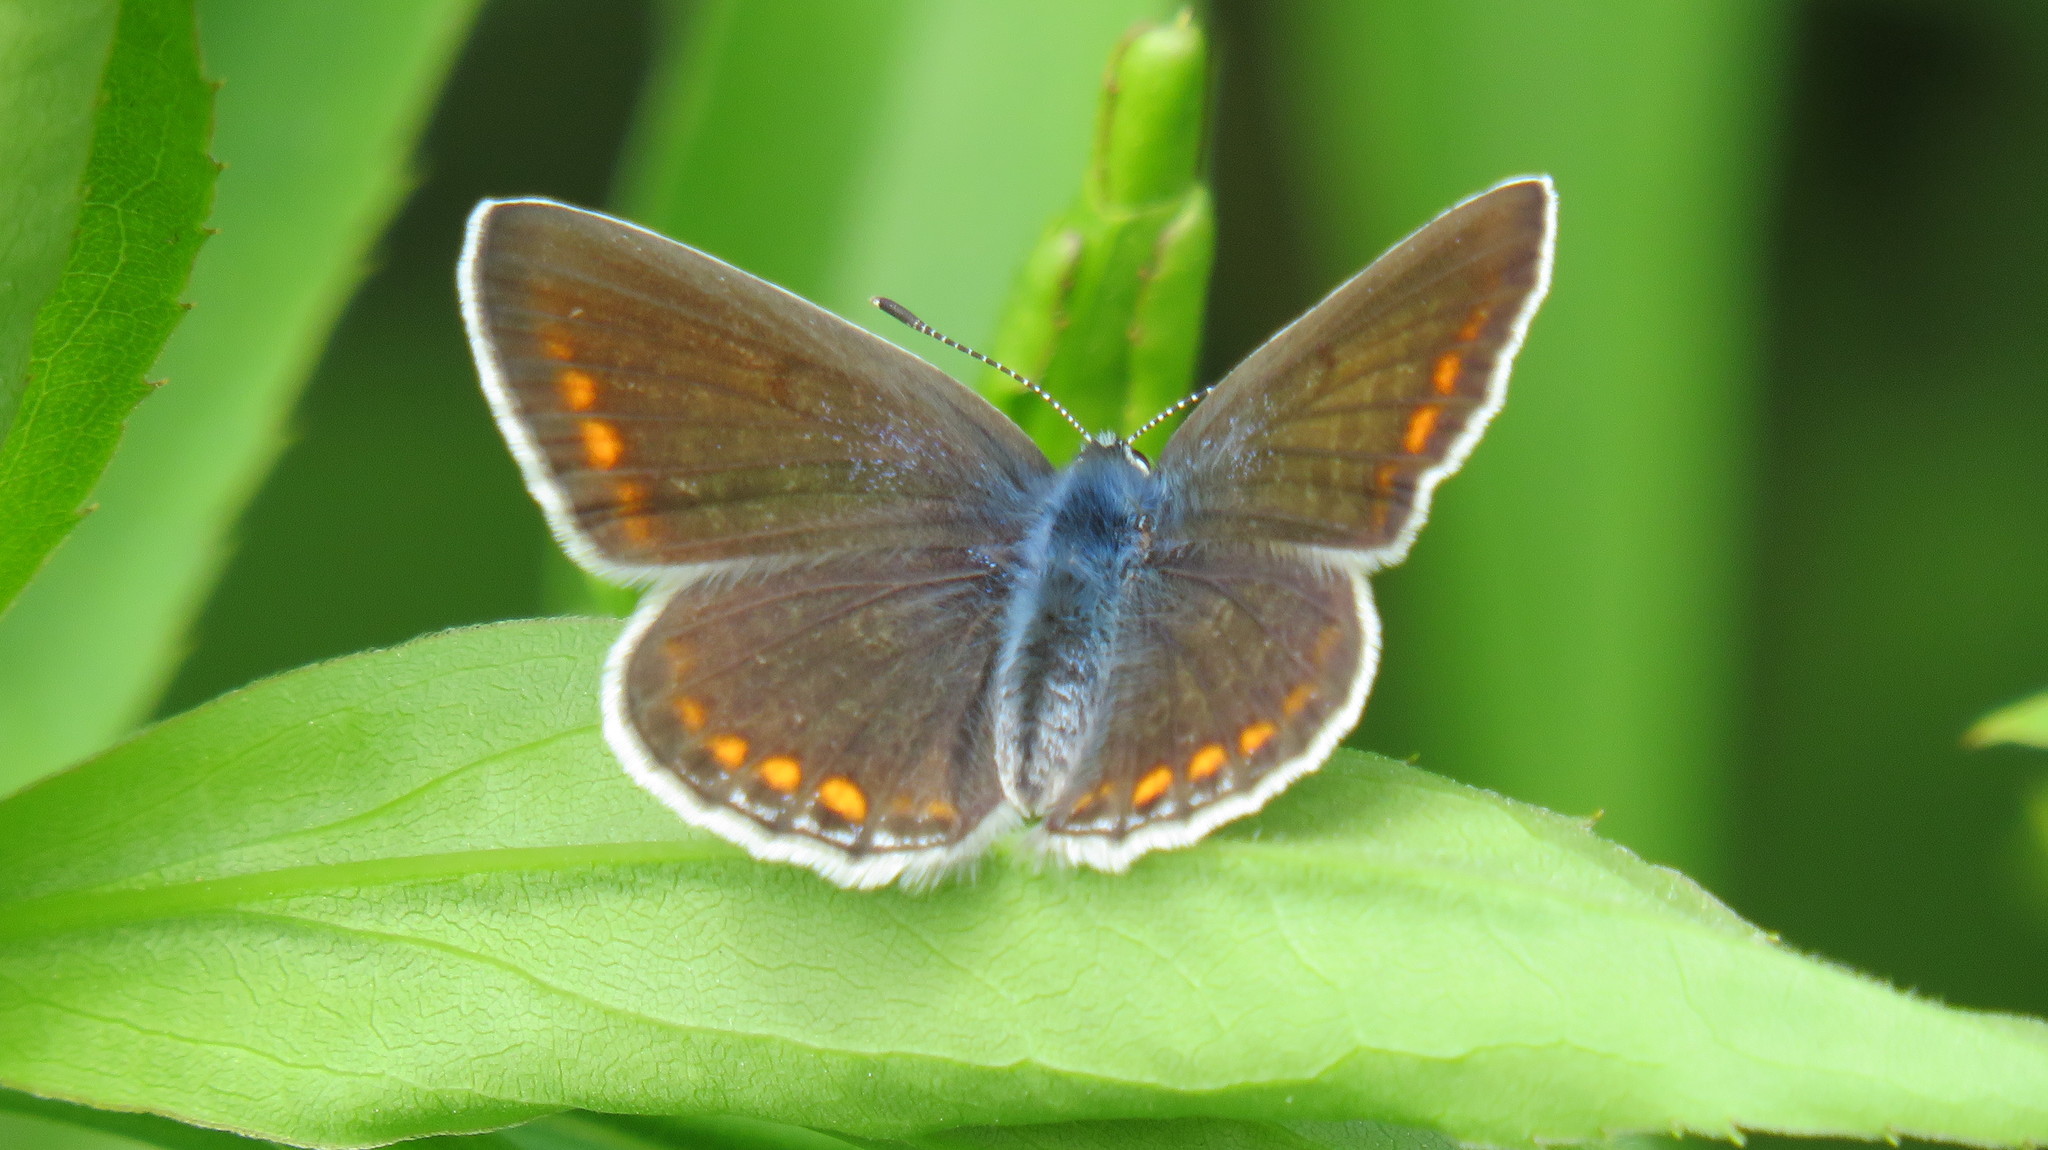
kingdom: Animalia
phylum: Arthropoda
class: Insecta
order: Lepidoptera
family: Lycaenidae
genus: Polyommatus
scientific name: Polyommatus icarus
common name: Common blue
